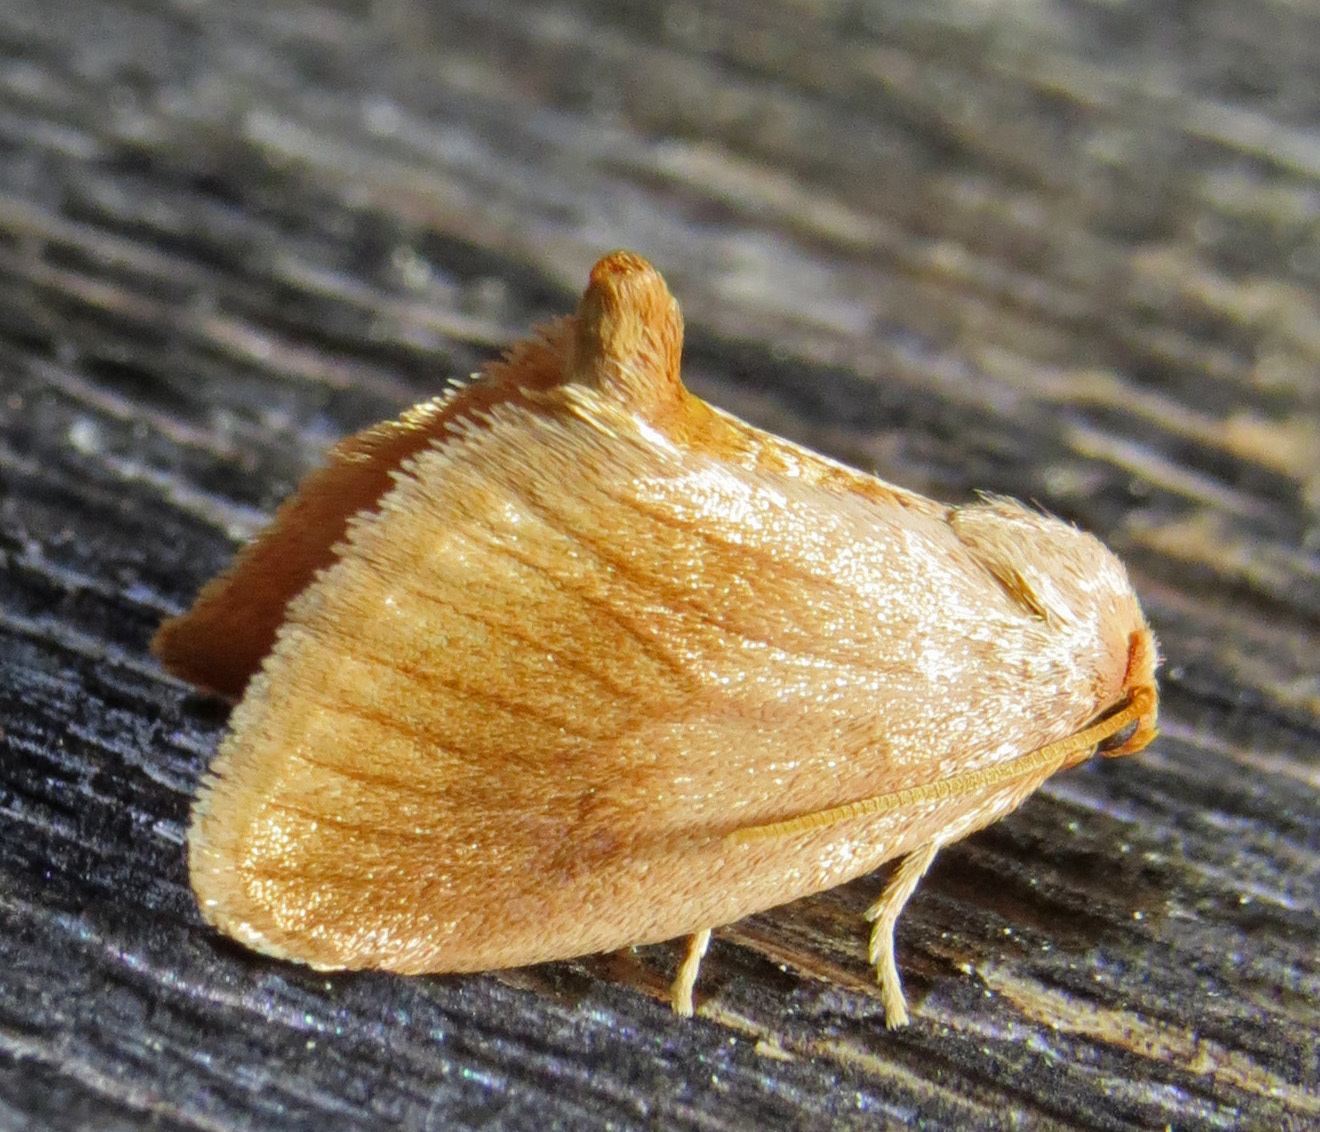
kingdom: Animalia
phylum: Arthropoda
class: Insecta
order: Lepidoptera
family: Limacodidae
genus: Tortricidia
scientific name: Tortricidia testacea
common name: Early button slug moth
